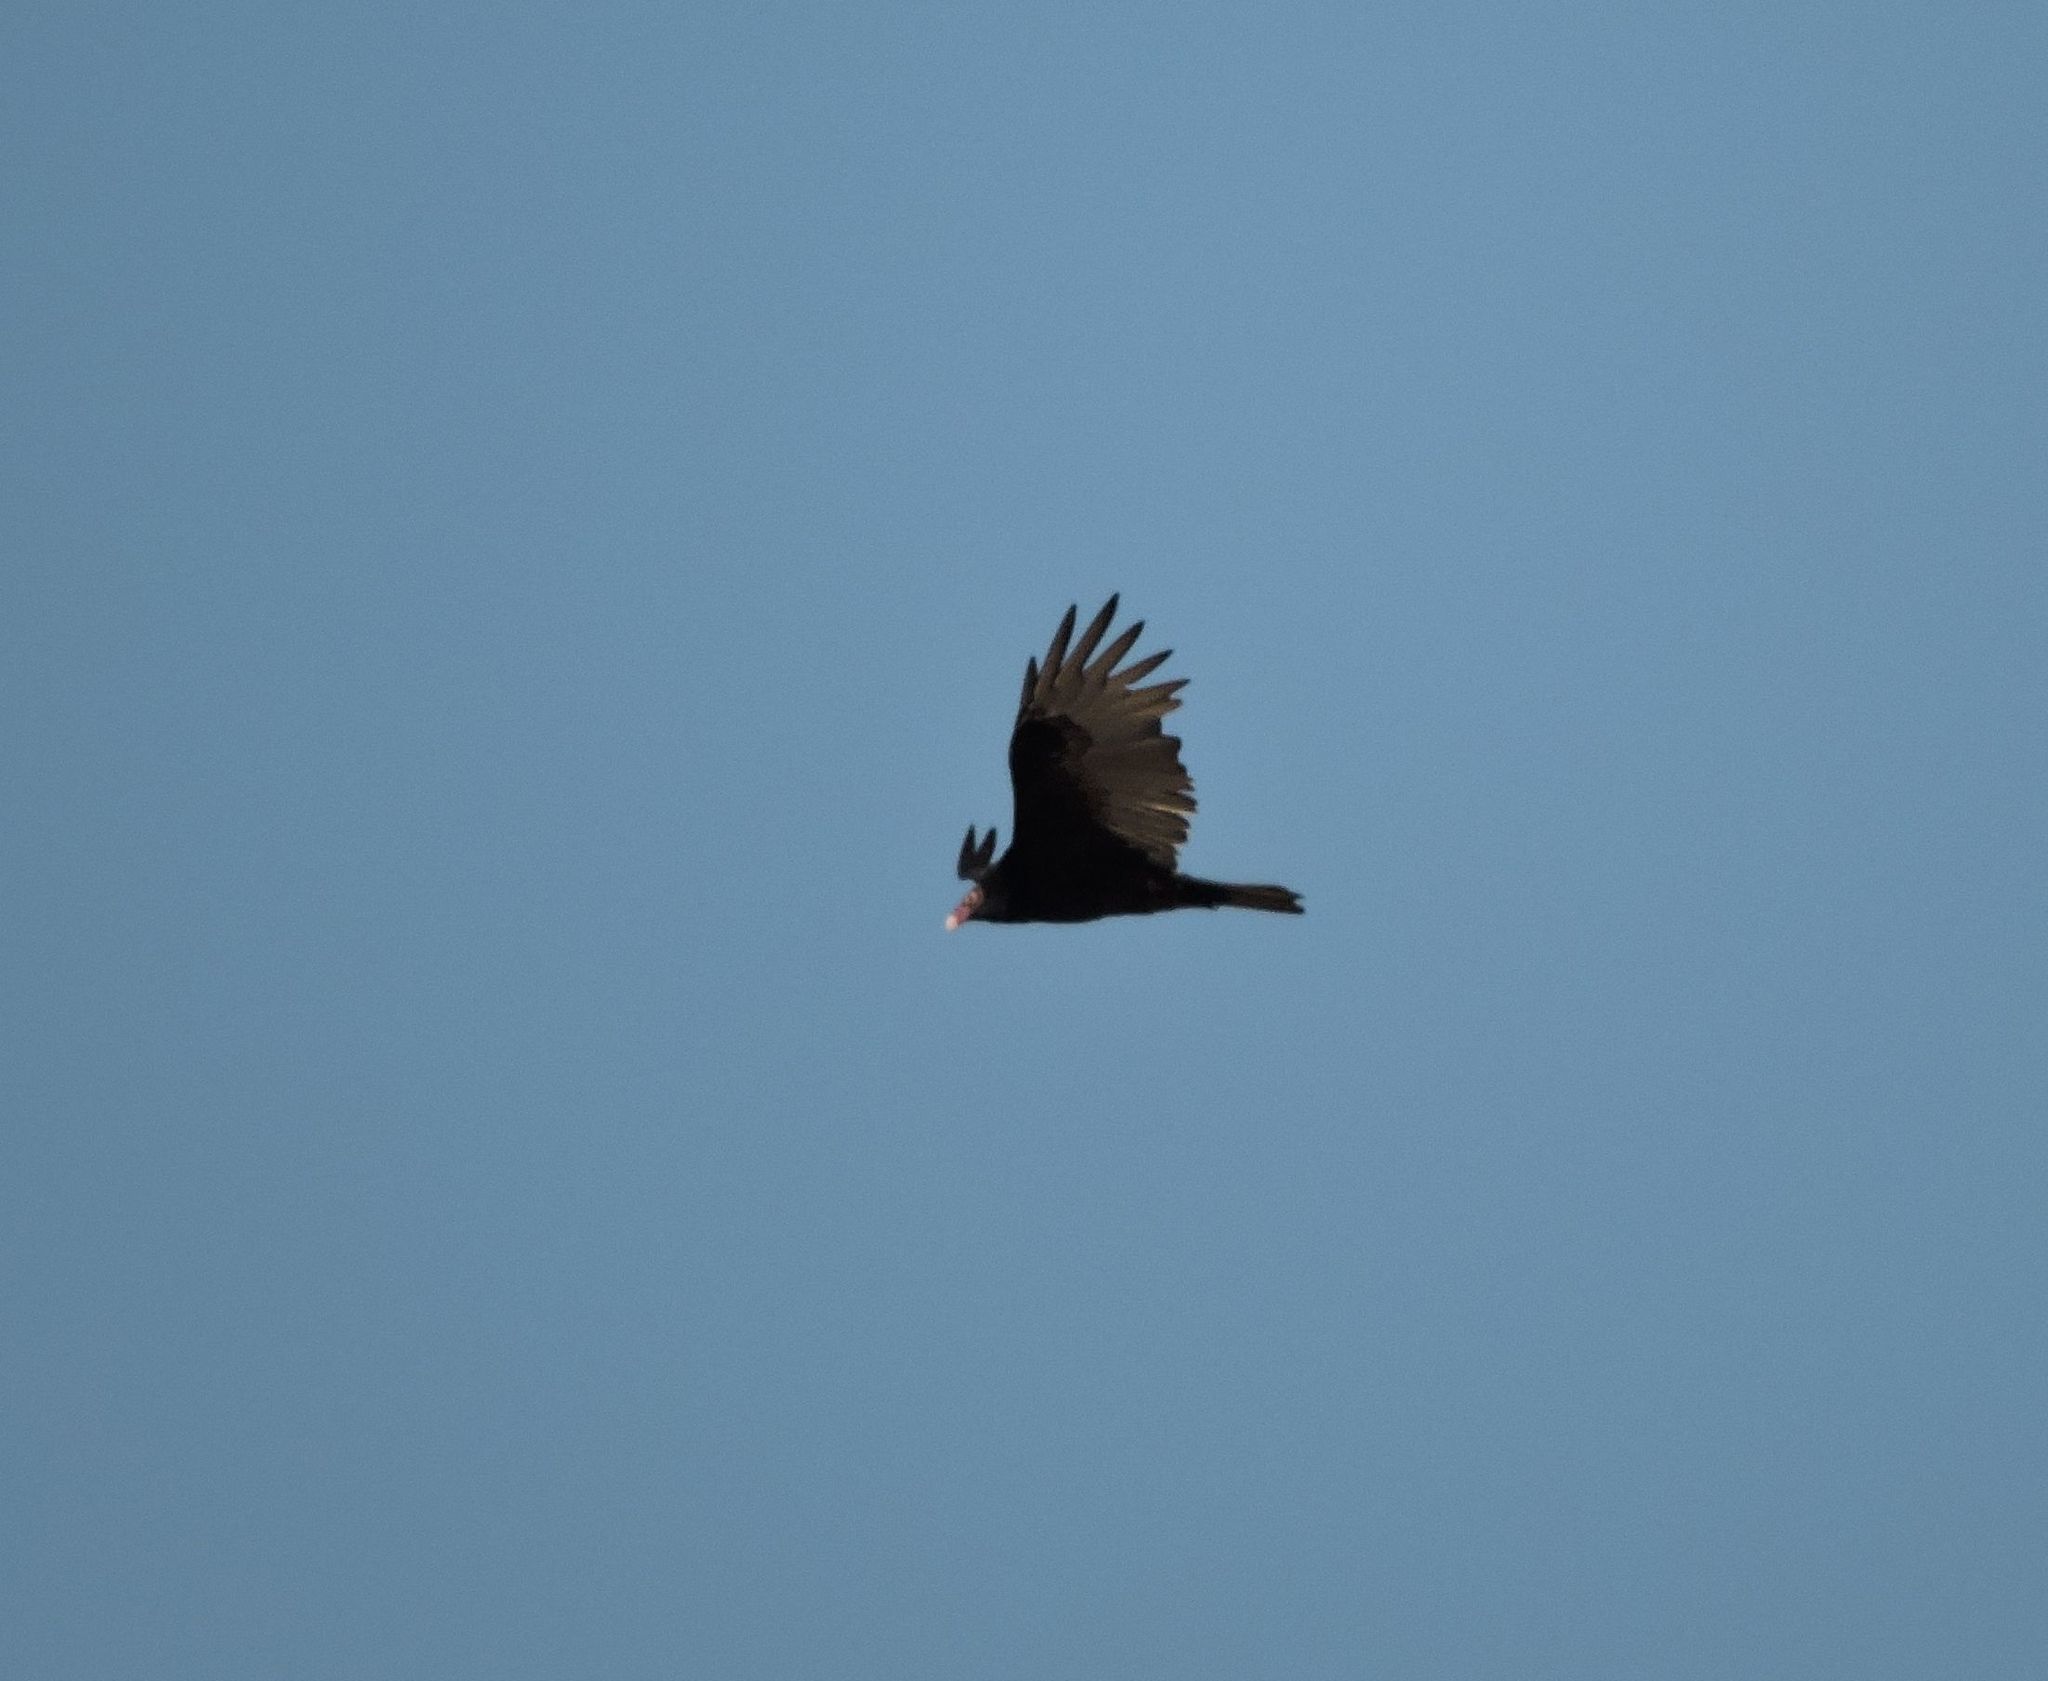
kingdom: Animalia
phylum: Chordata
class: Aves
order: Accipitriformes
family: Cathartidae
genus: Cathartes
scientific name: Cathartes aura
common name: Turkey vulture
